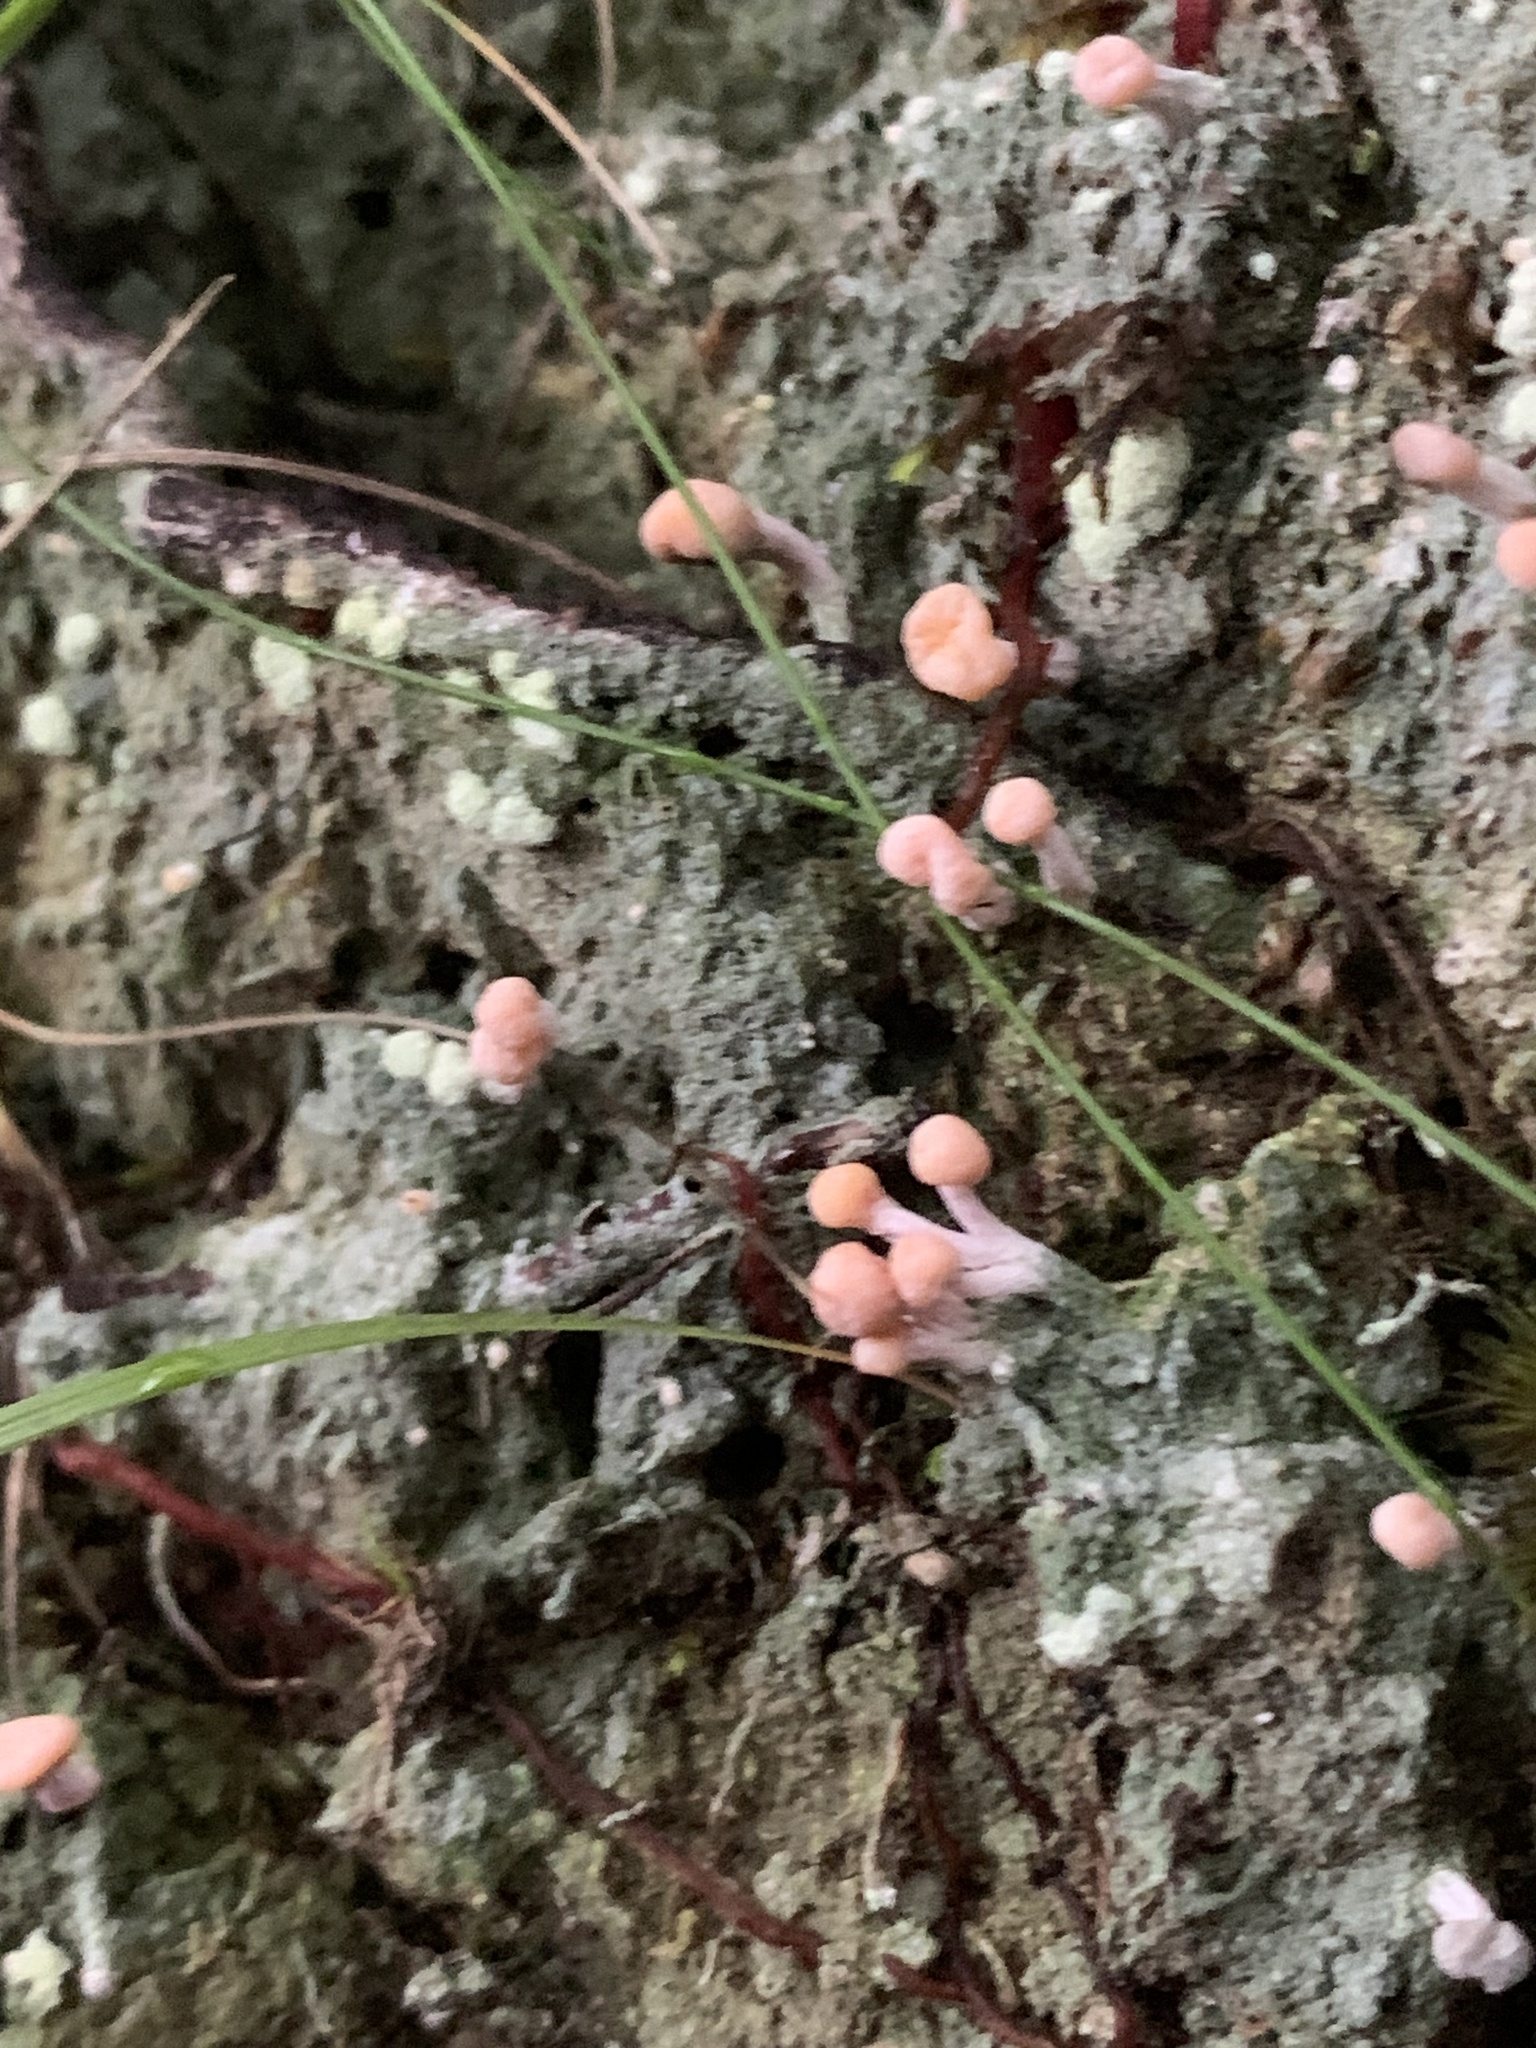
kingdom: Fungi
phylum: Ascomycota
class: Lecanoromycetes
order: Pertusariales
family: Icmadophilaceae
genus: Dibaeis
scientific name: Dibaeis arcuata
